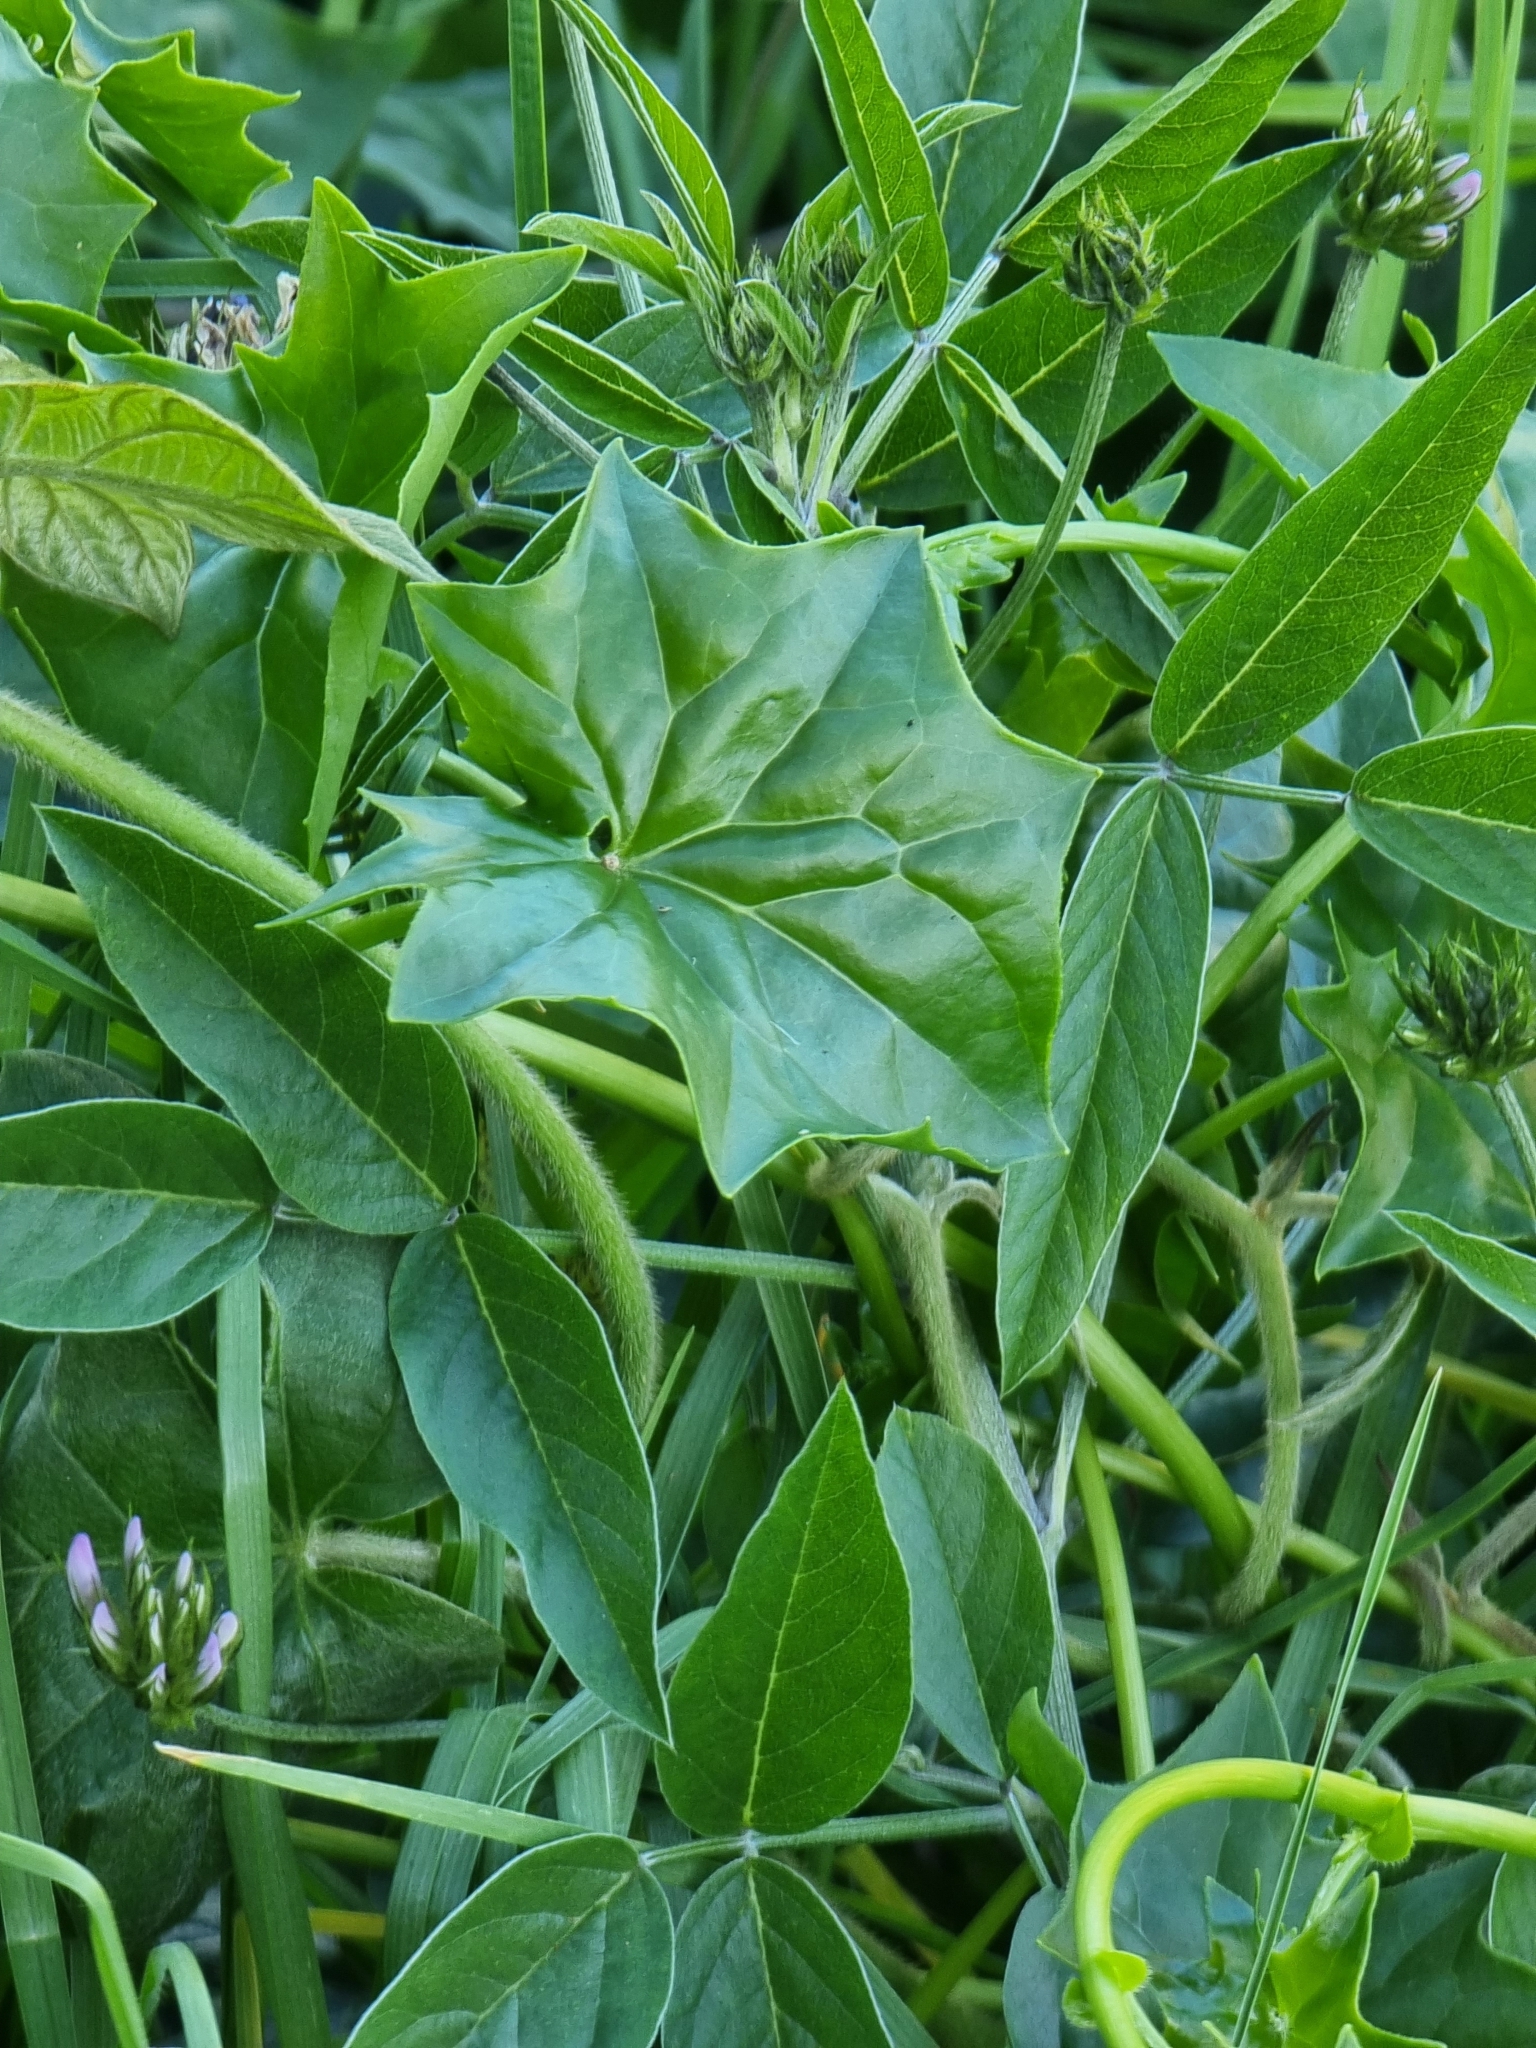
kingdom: Plantae
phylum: Tracheophyta
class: Magnoliopsida
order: Asterales
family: Asteraceae
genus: Delairea
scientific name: Delairea odorata
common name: Cape-ivy
